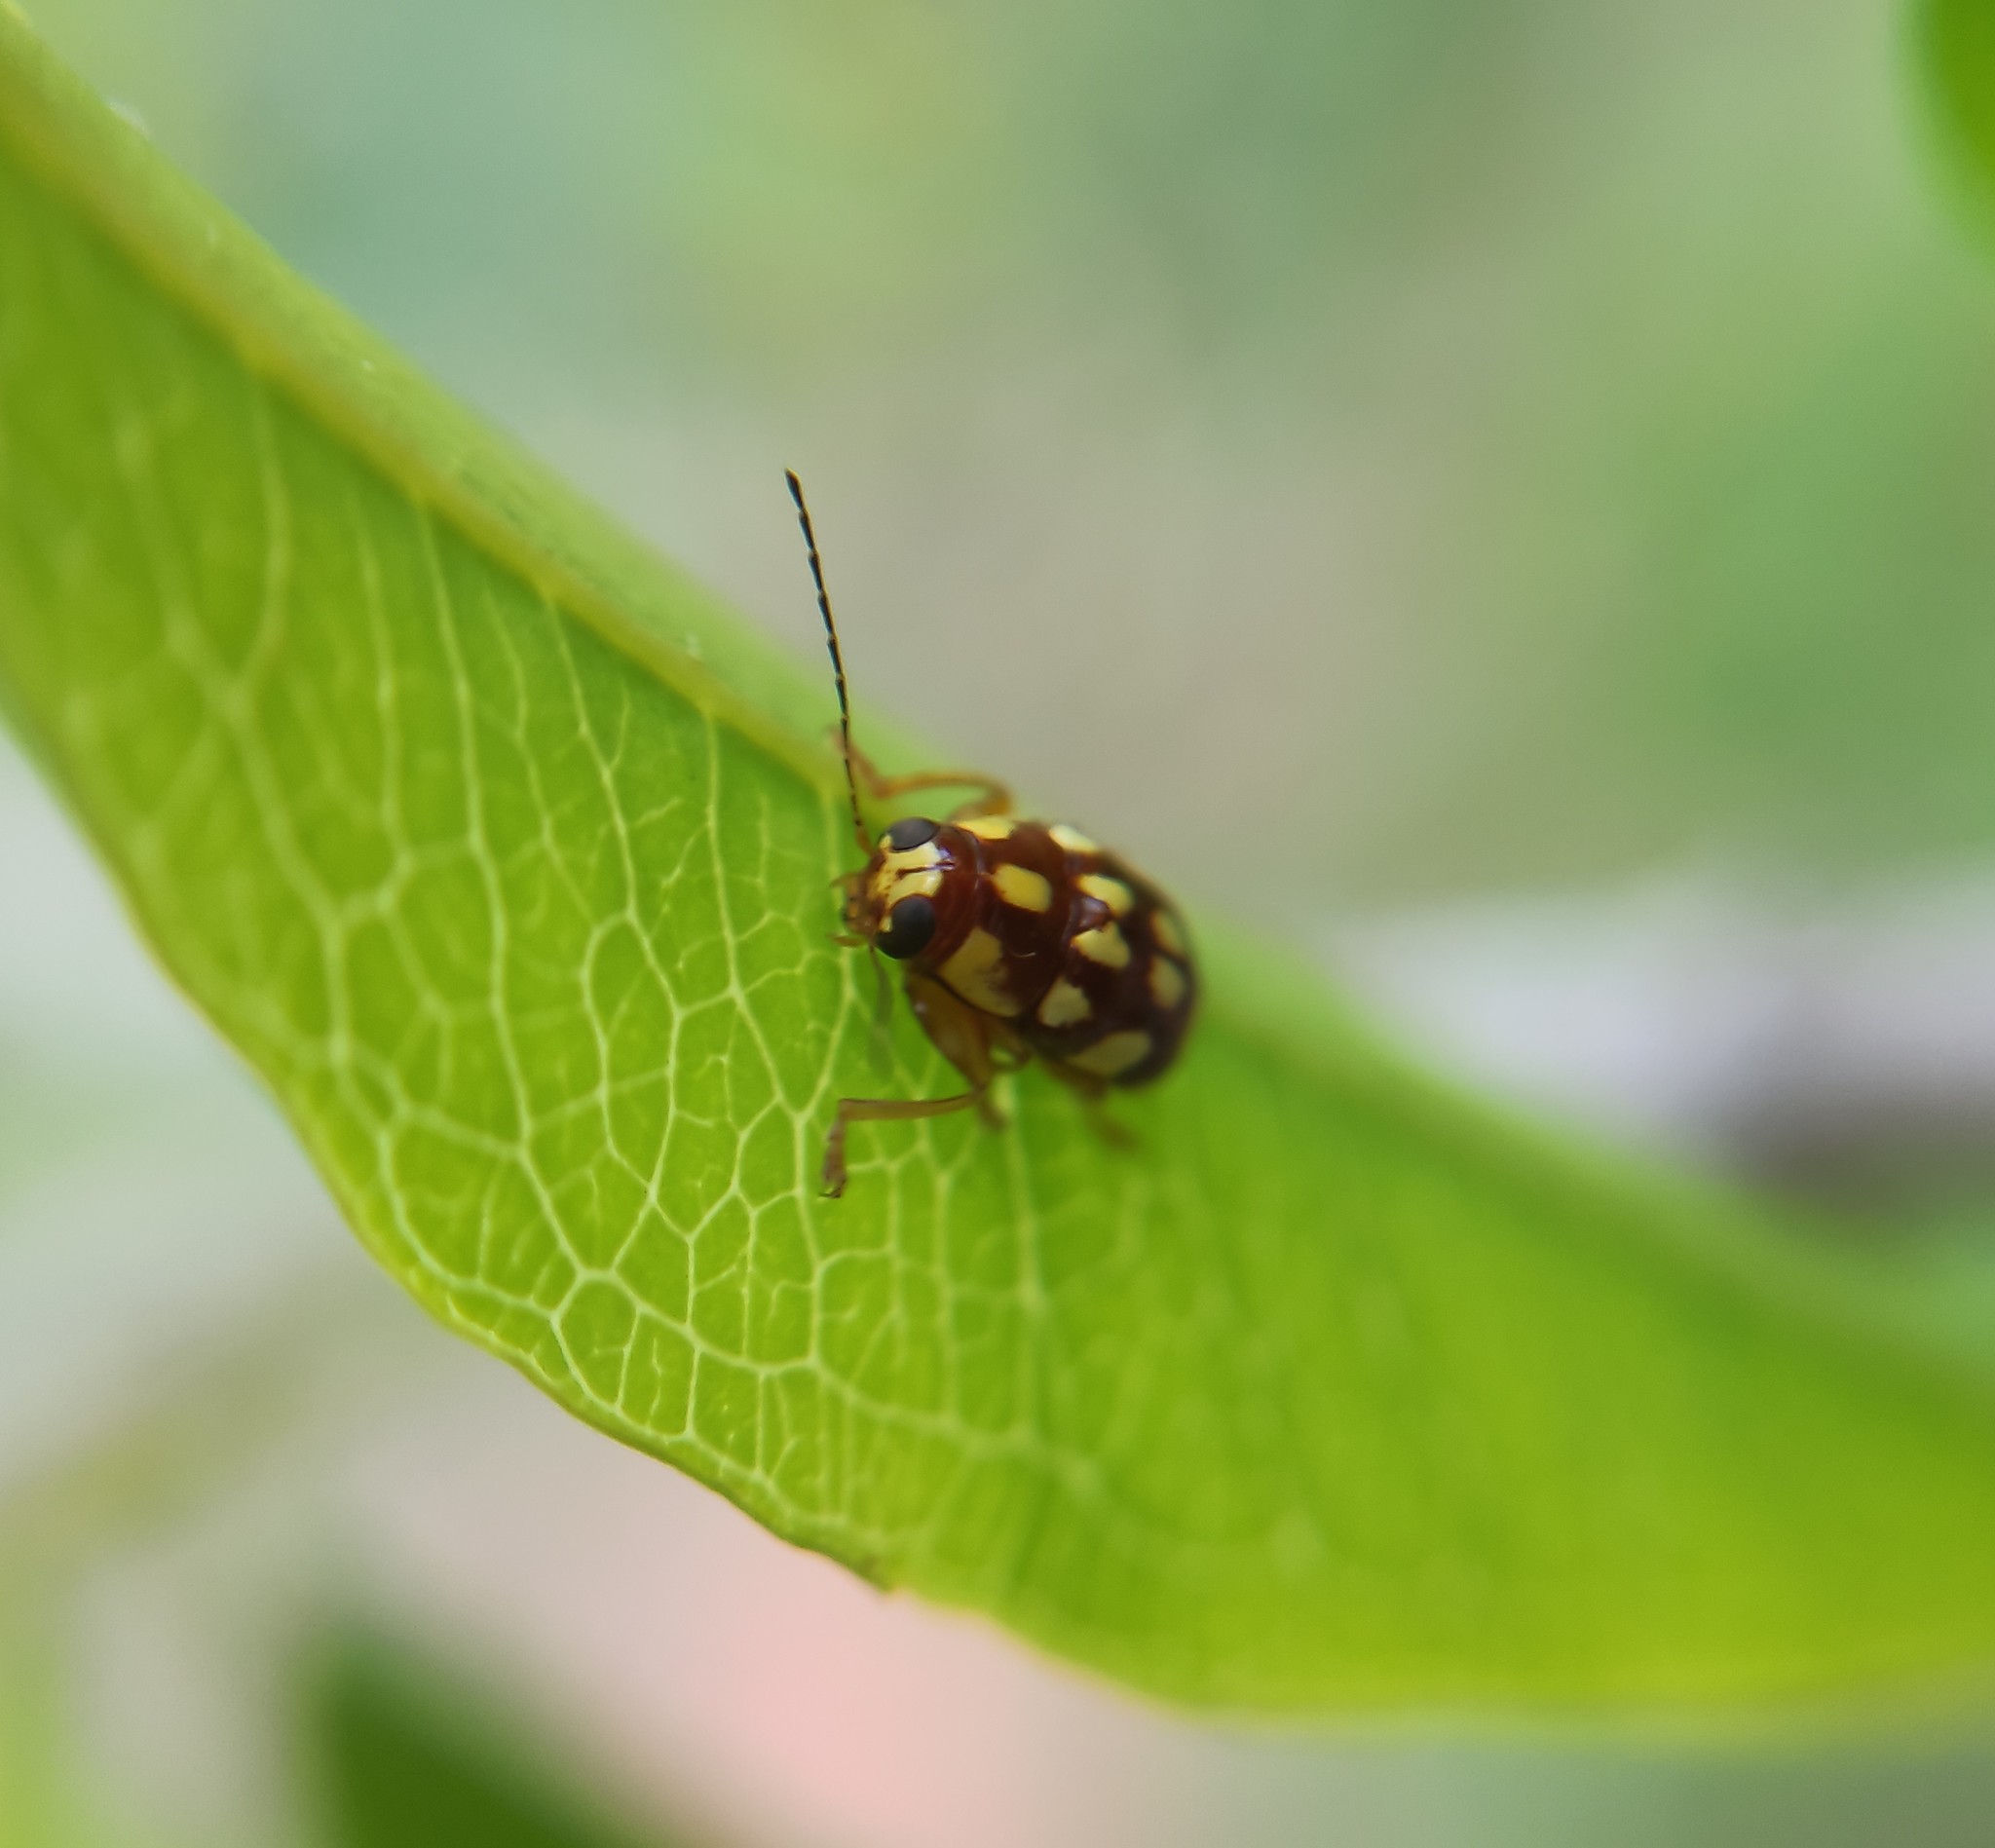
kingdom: Animalia
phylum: Arthropoda
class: Insecta
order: Coleoptera
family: Chrysomelidae
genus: Metallactus
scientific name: Metallactus
